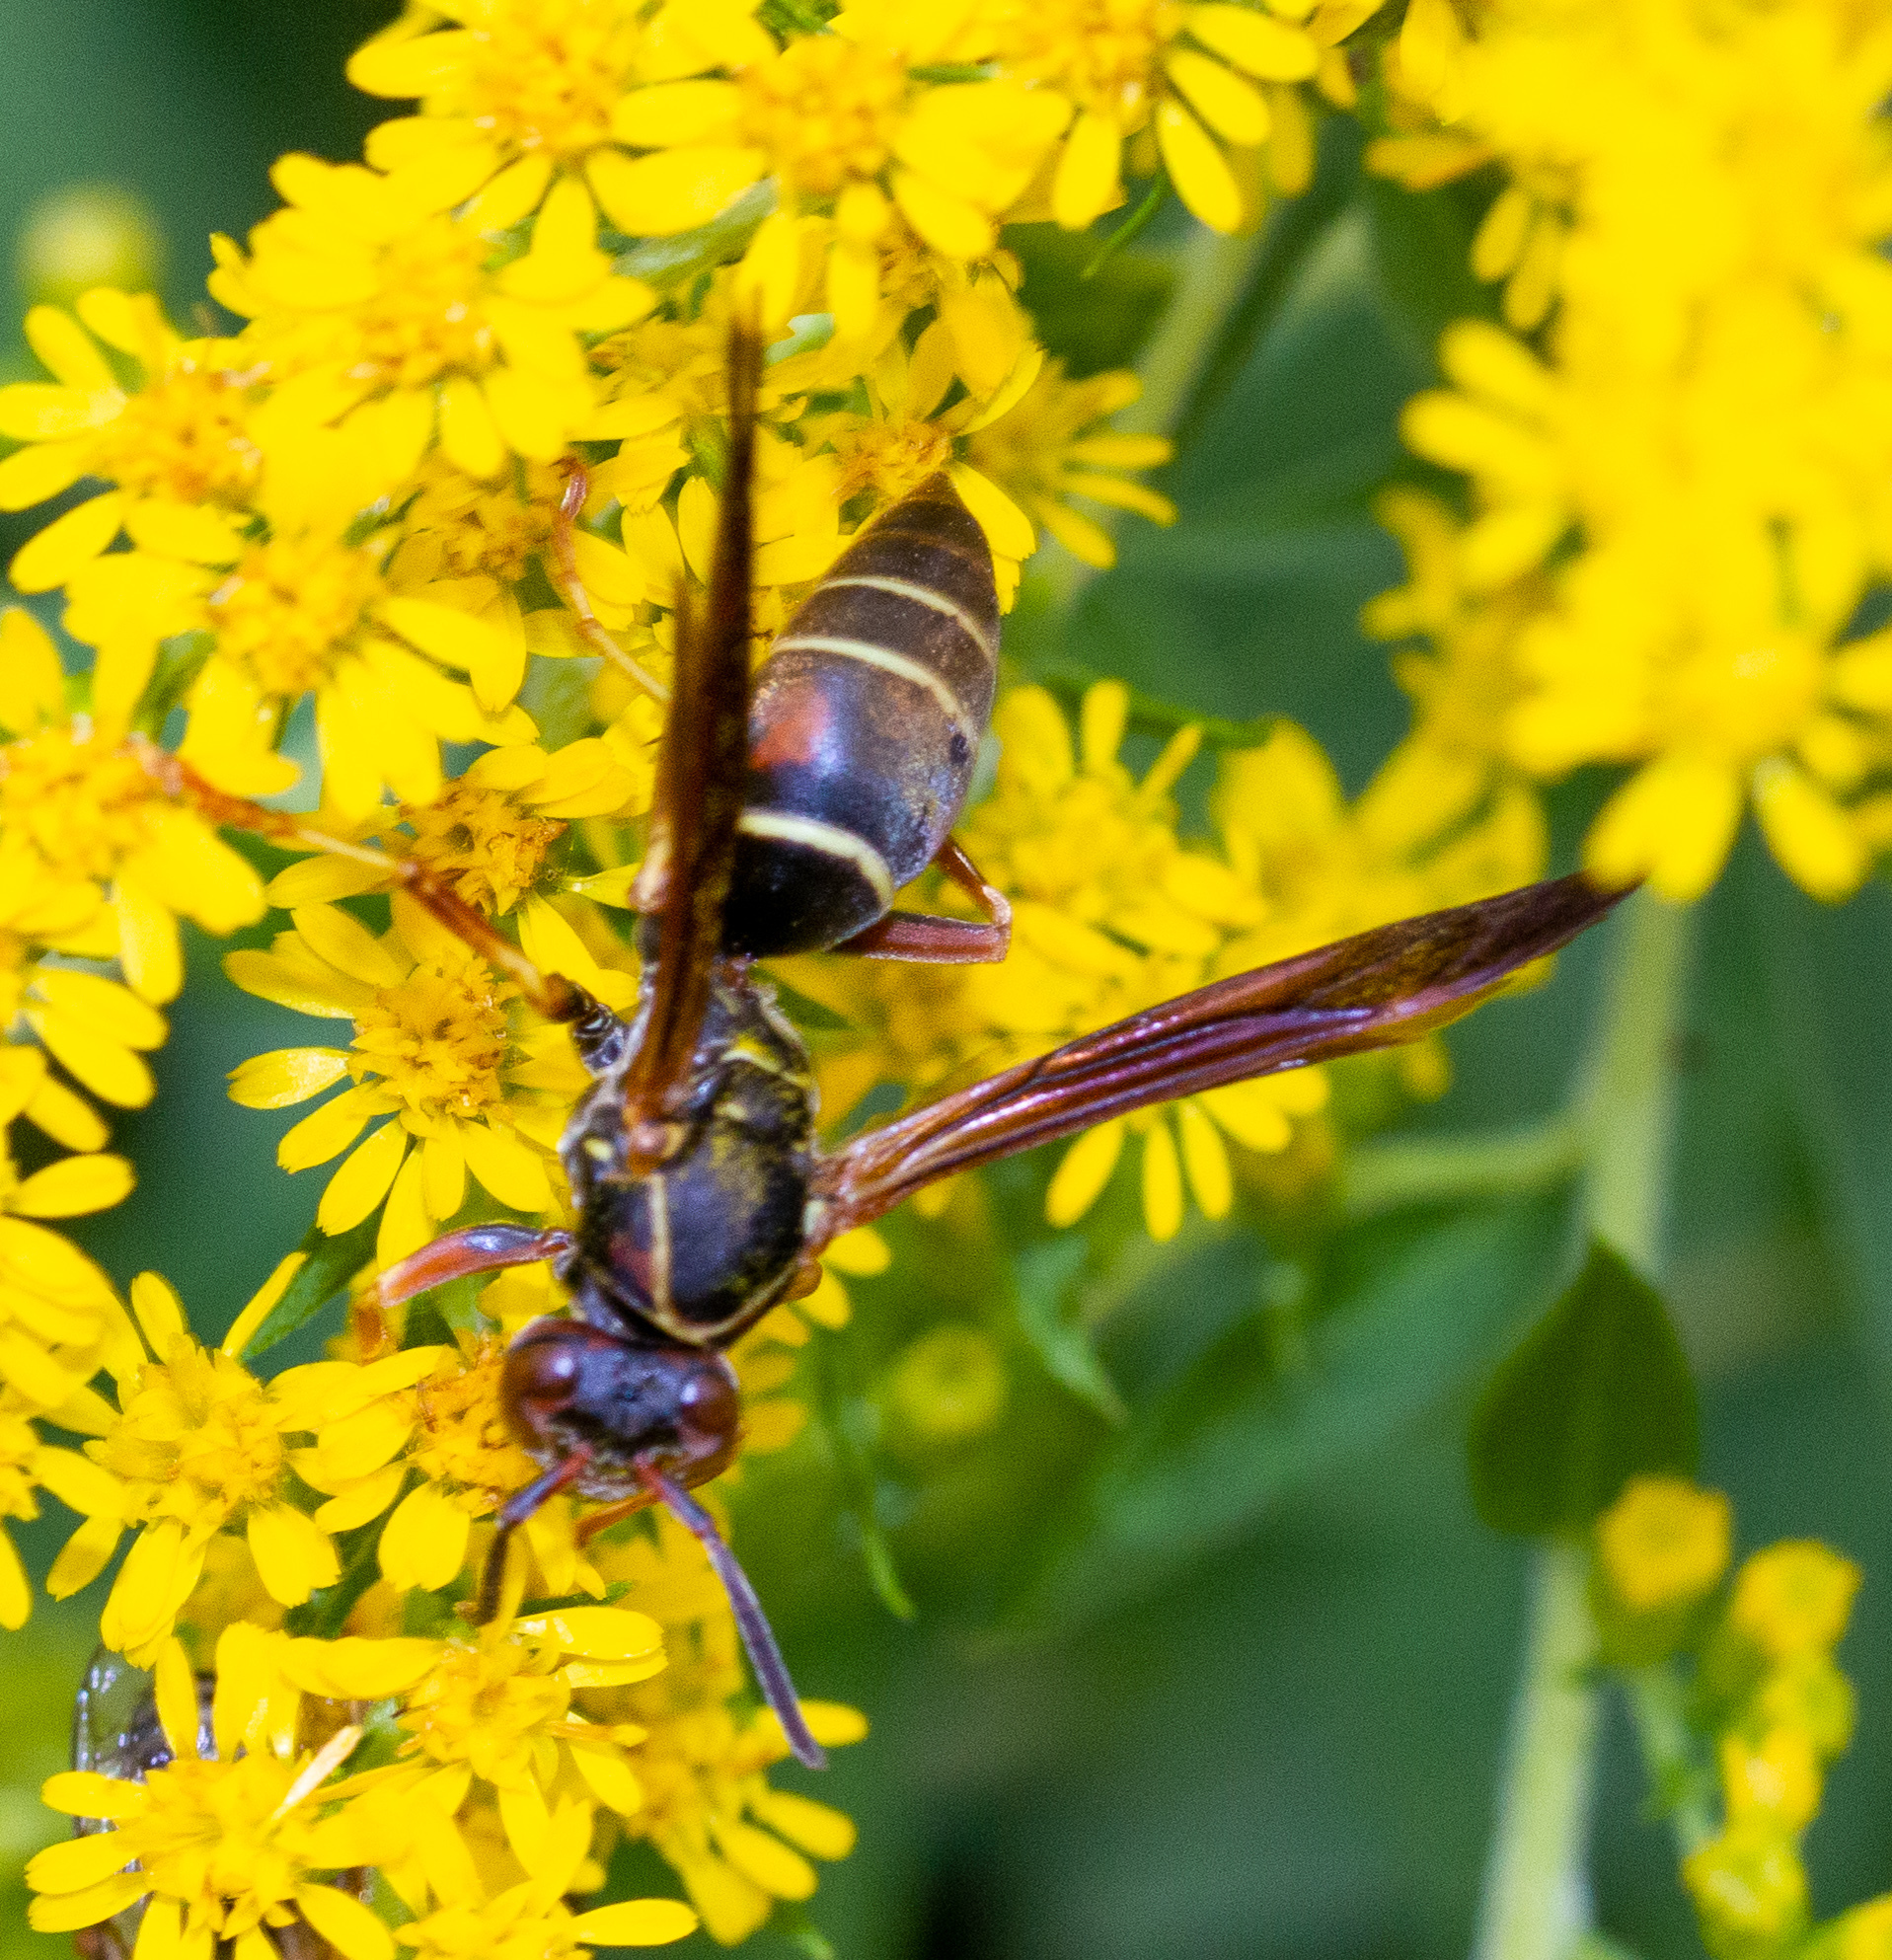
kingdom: Animalia
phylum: Arthropoda
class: Insecta
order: Hymenoptera
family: Eumenidae
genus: Polistes
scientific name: Polistes fuscatus
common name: Dark paper wasp
